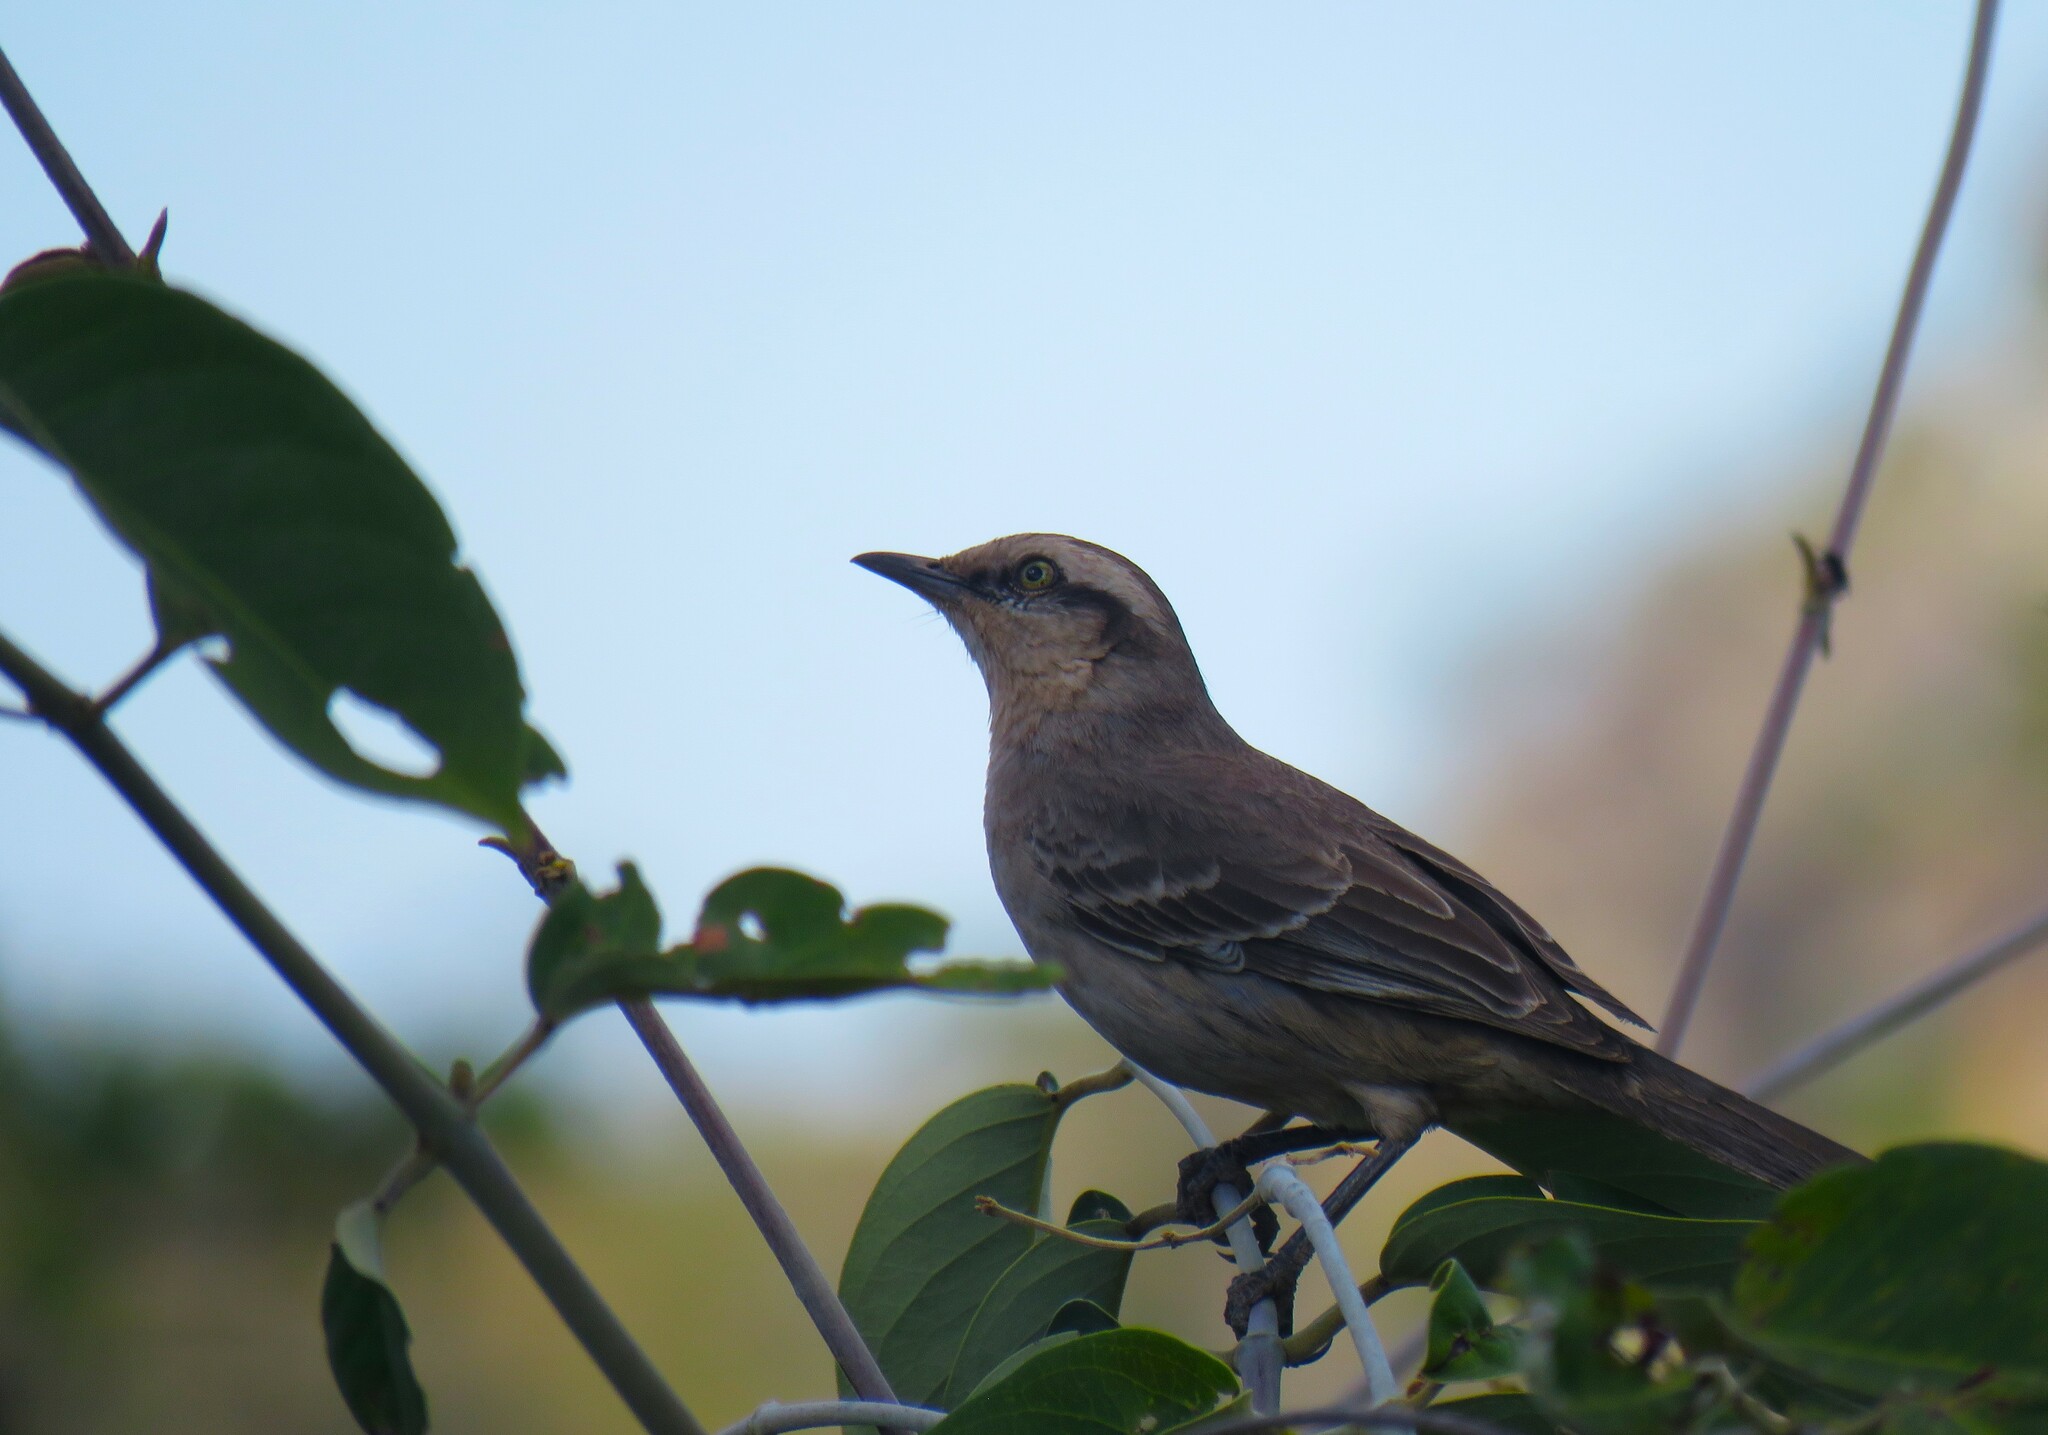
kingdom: Animalia
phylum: Chordata
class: Aves
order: Passeriformes
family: Mimidae
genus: Mimus
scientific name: Mimus saturninus
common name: Chalk-browed mockingbird
